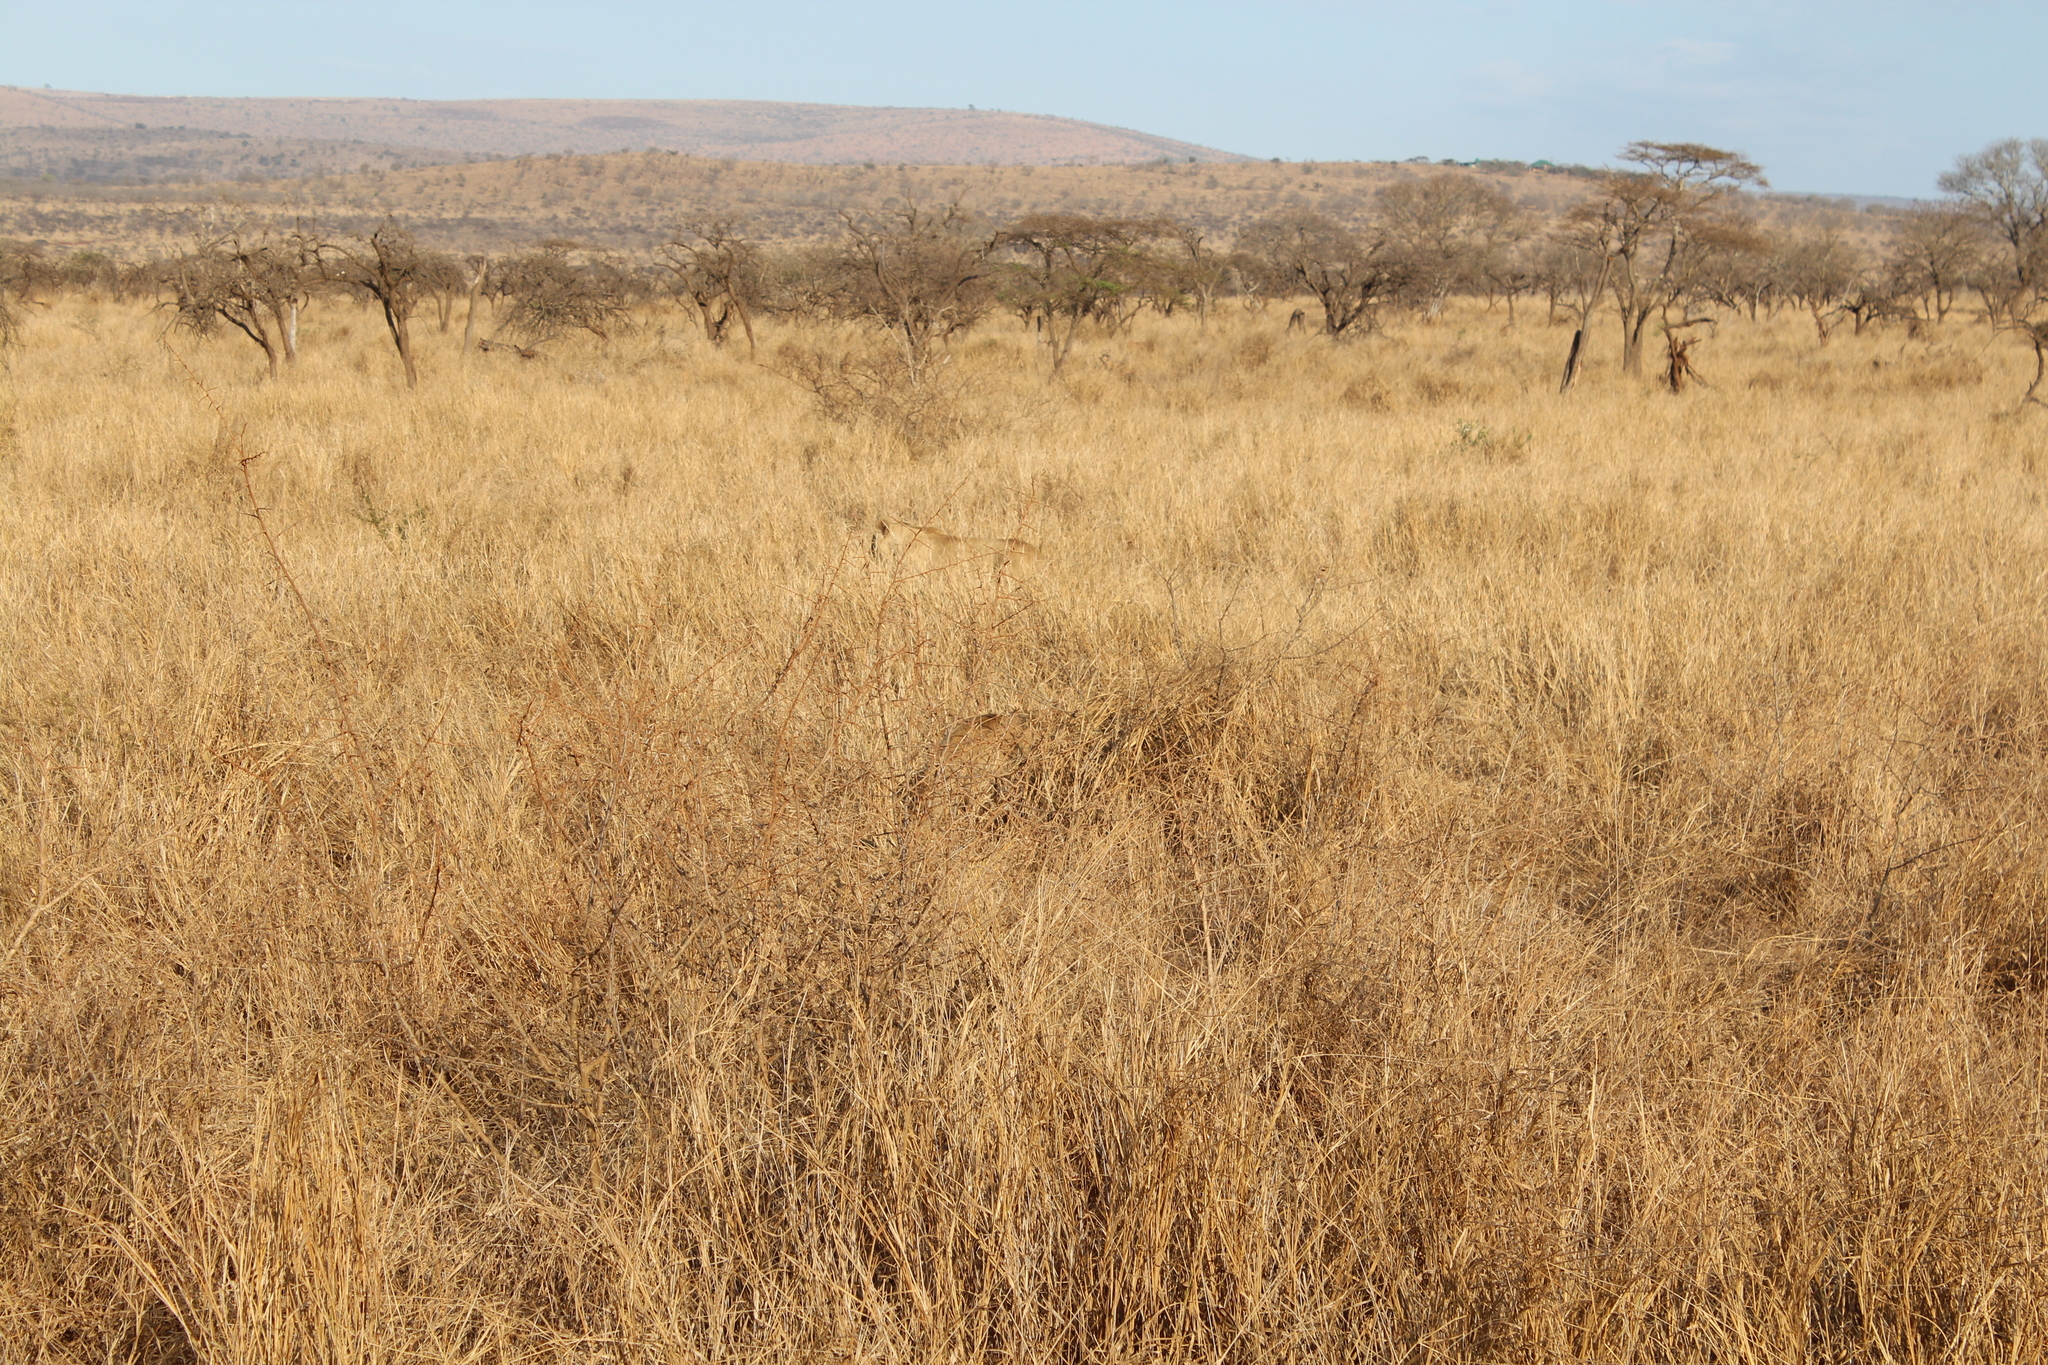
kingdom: Animalia
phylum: Chordata
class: Mammalia
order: Carnivora
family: Felidae
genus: Panthera
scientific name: Panthera leo
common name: Lion
